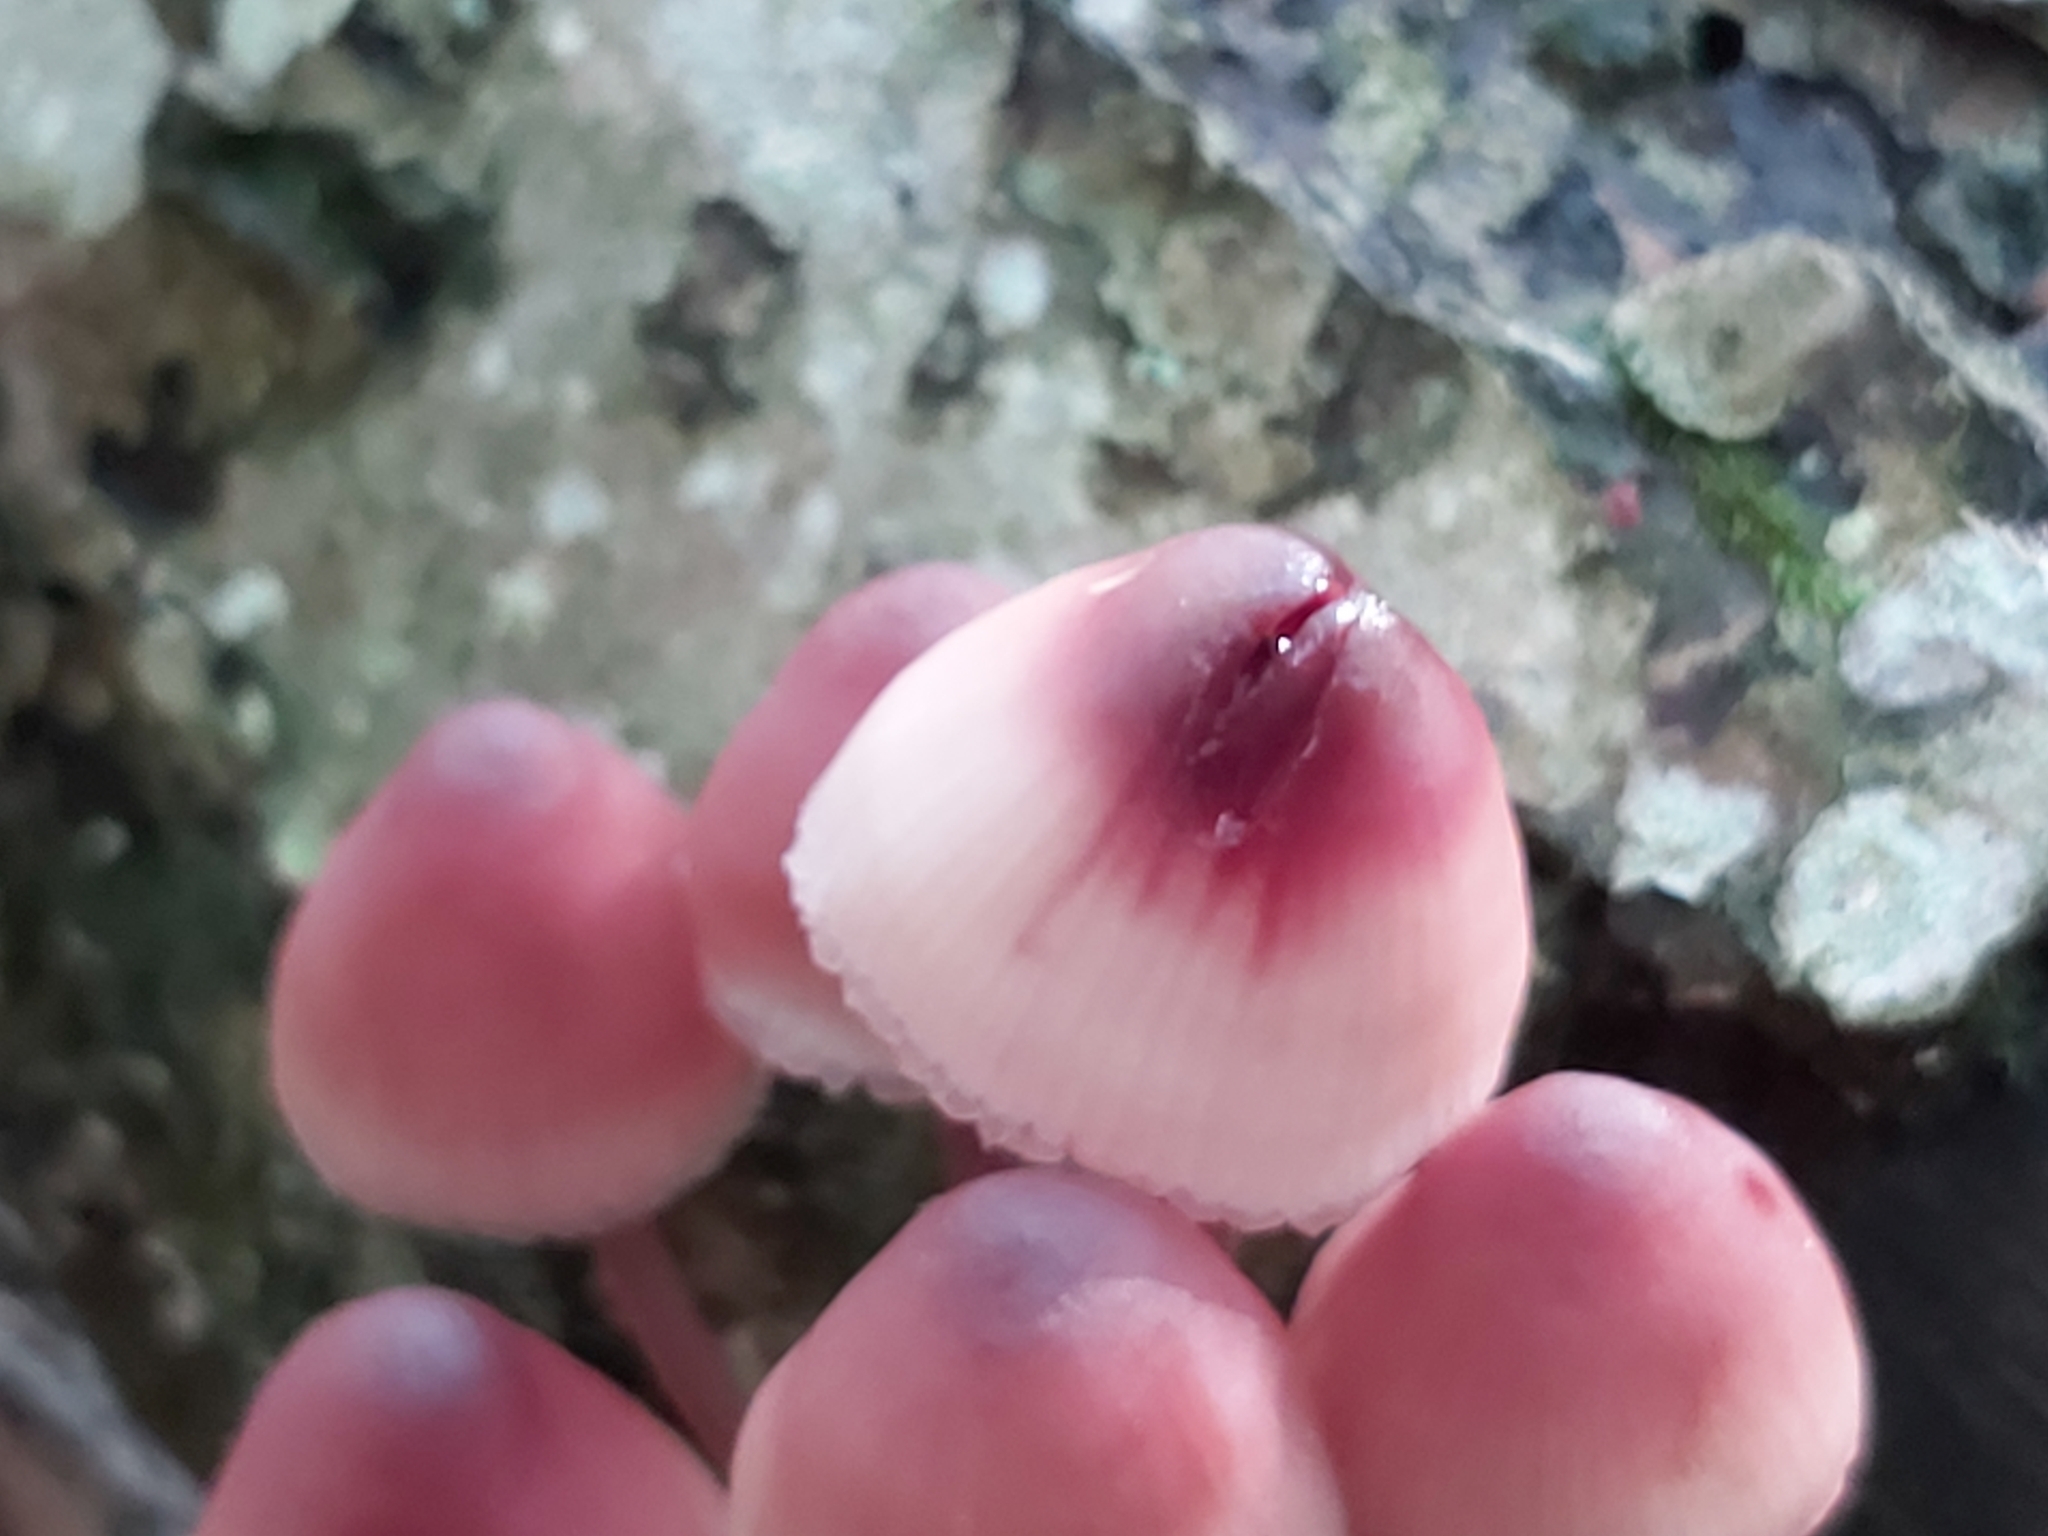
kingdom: Fungi
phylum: Basidiomycota
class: Agaricomycetes
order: Agaricales
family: Mycenaceae
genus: Mycena
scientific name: Mycena haematopus
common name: Burgundydrop bonnet
